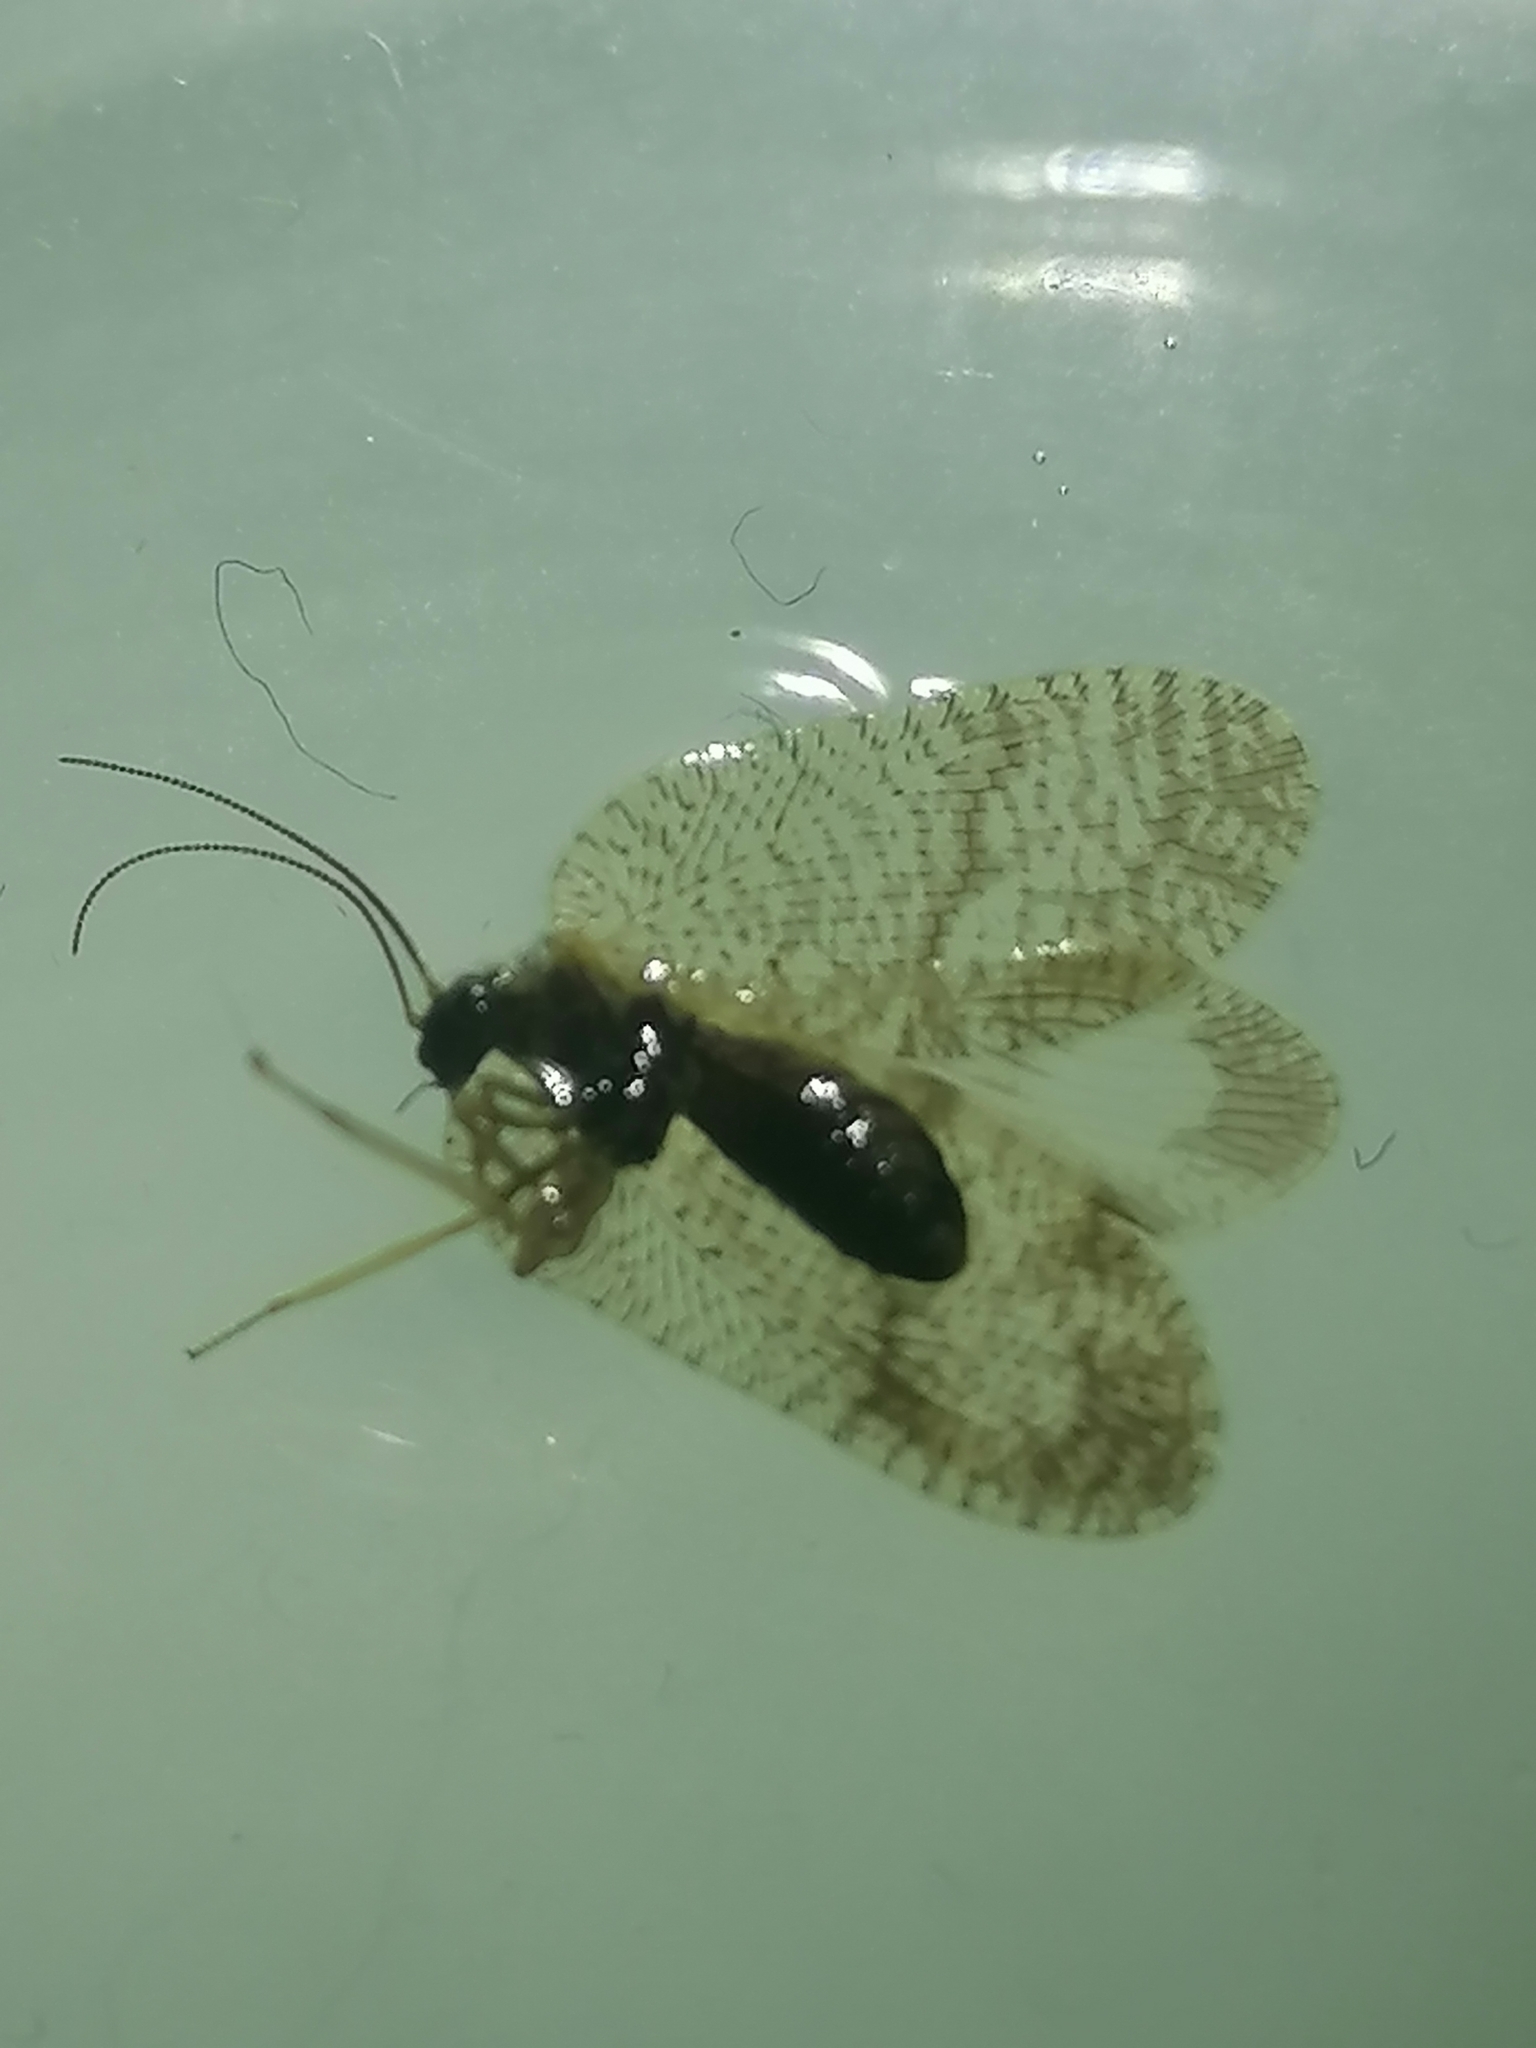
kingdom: Animalia
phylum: Arthropoda
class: Insecta
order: Neuroptera
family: Hemerobiidae
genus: Megalomus
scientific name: Megalomus tortricoides
